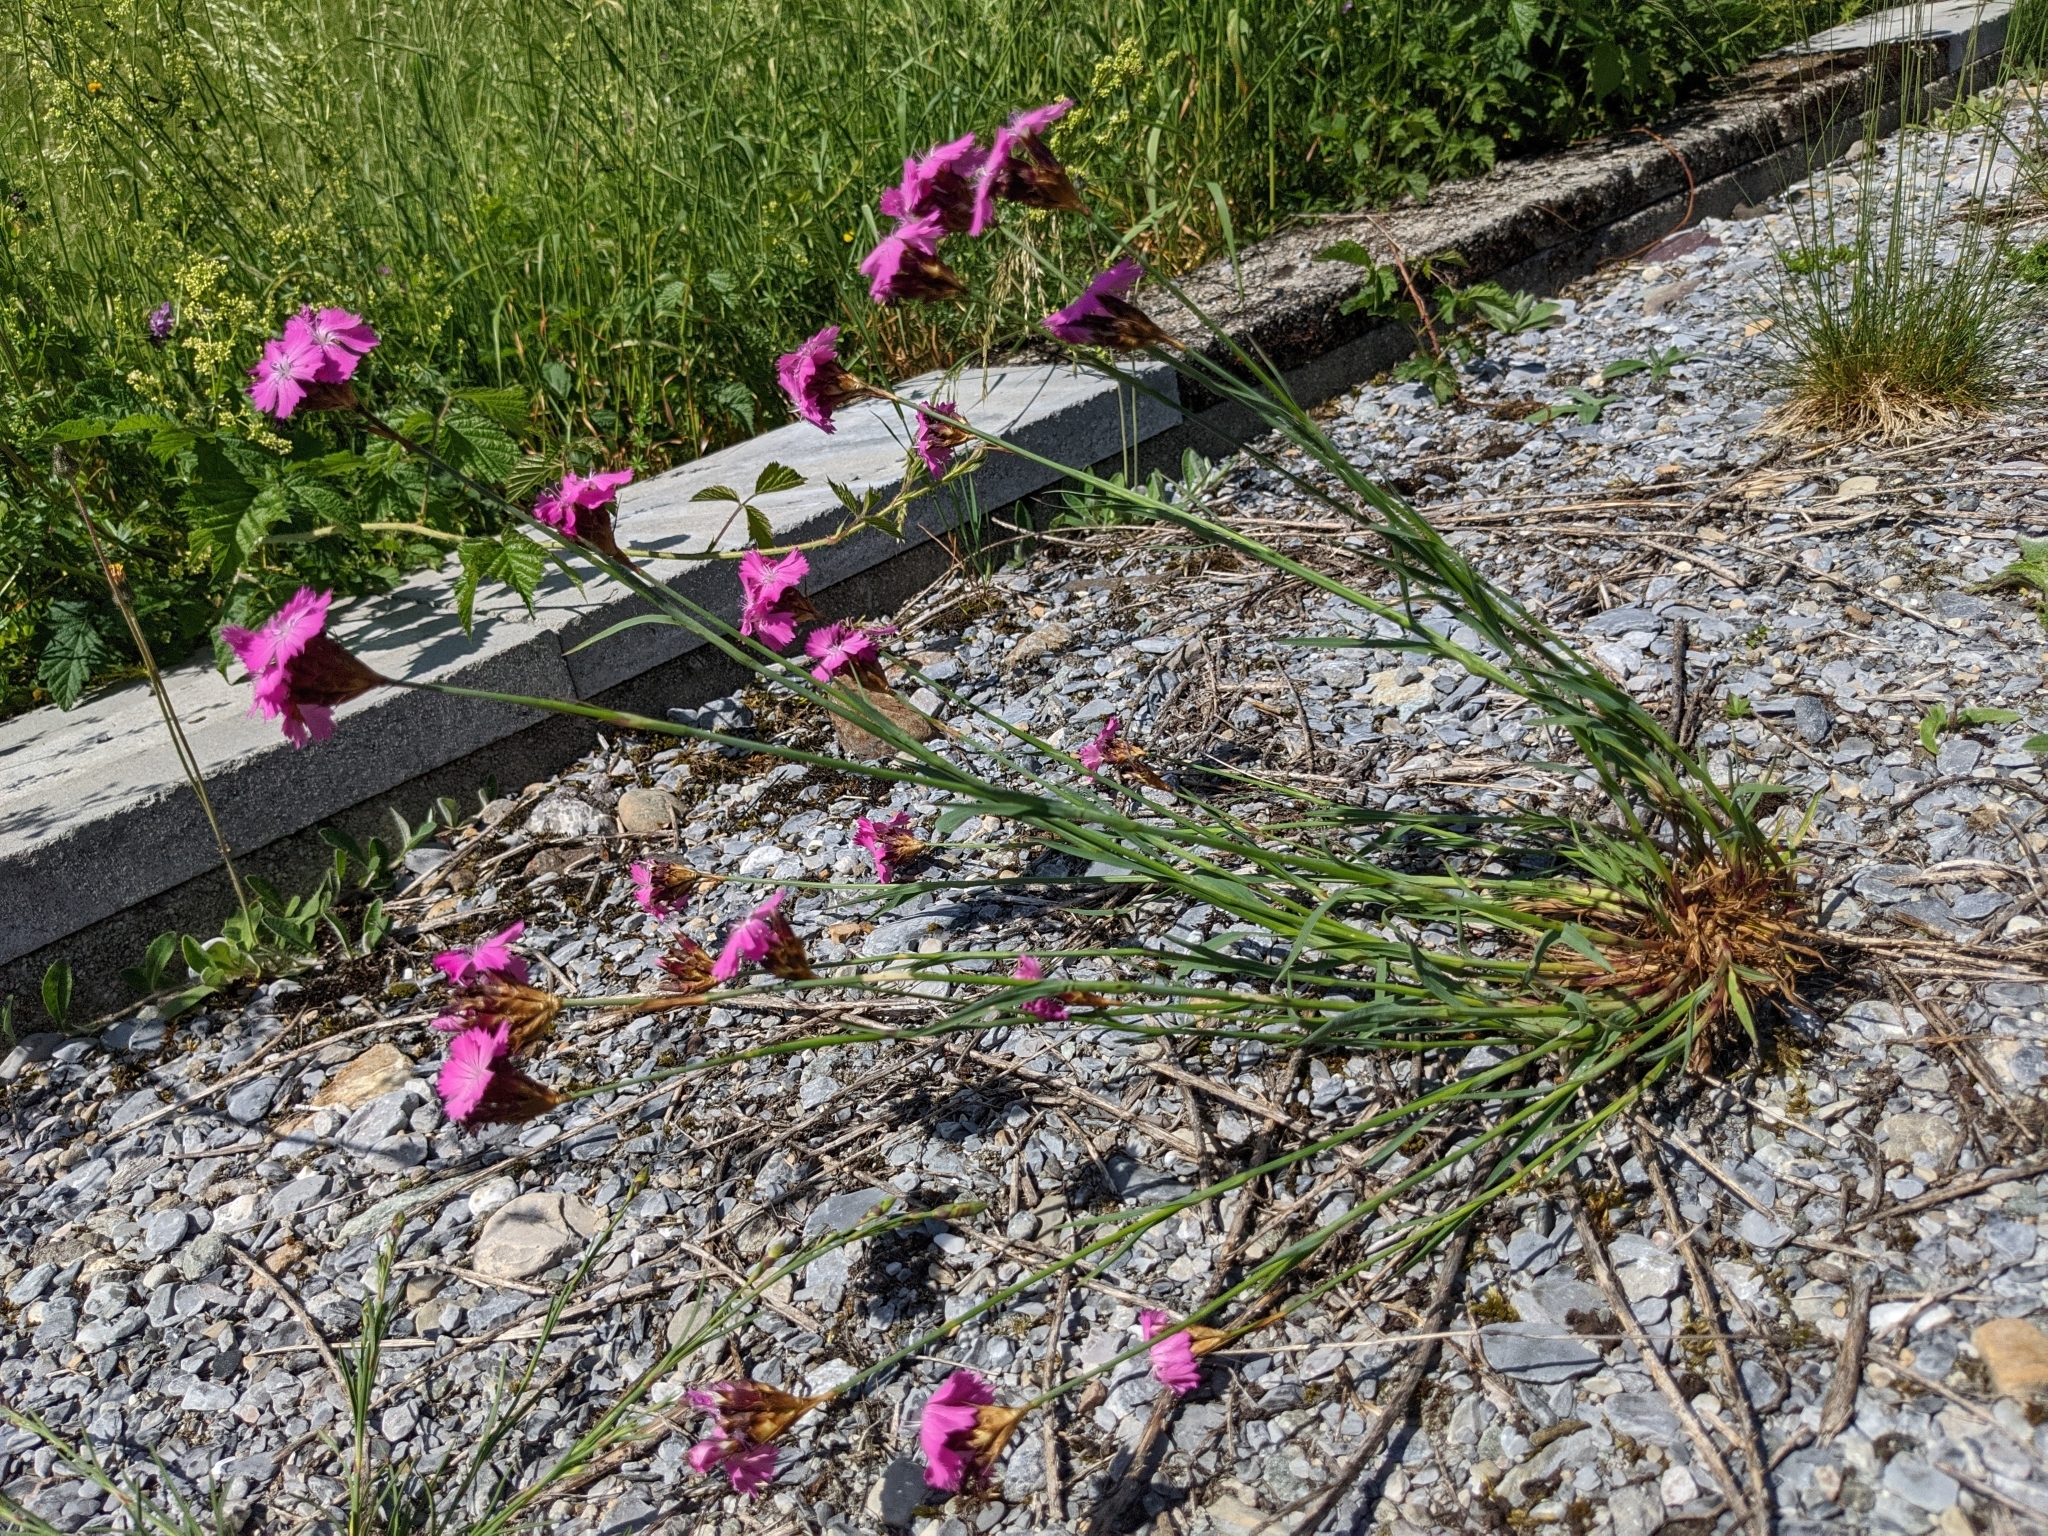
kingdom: Plantae
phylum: Tracheophyta
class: Magnoliopsida
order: Caryophyllales
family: Caryophyllaceae
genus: Dianthus
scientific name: Dianthus carthusianorum
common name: Carthusian pink
